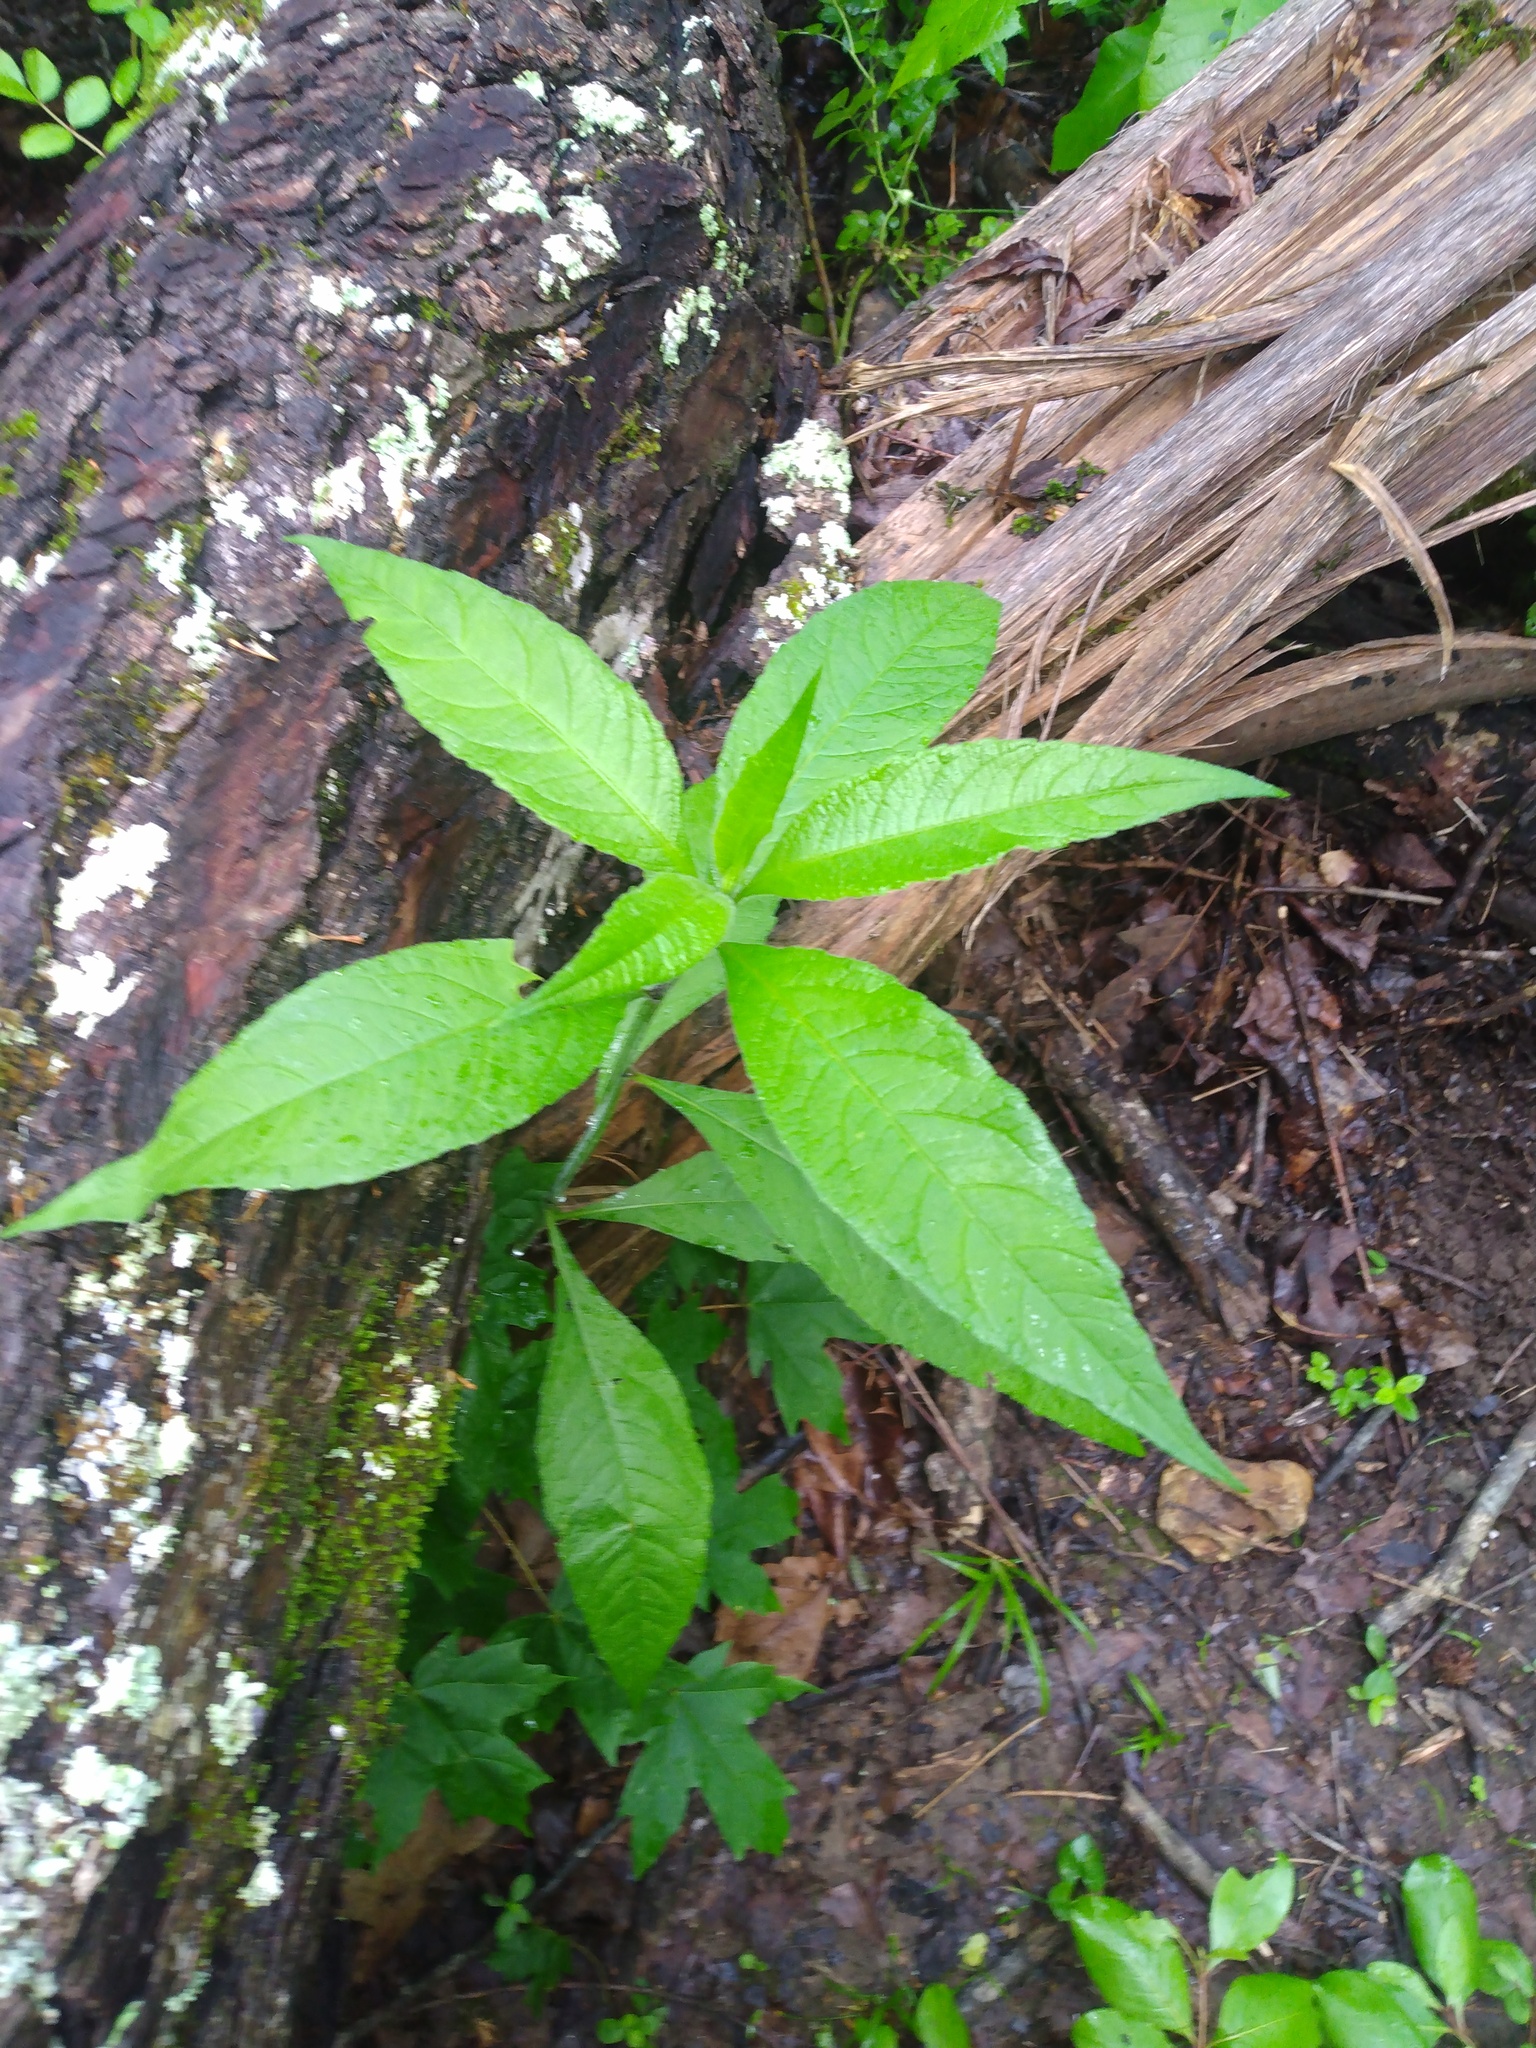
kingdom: Plantae
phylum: Tracheophyta
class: Magnoliopsida
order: Asterales
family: Asteraceae
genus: Verbesina
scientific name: Verbesina alternifolia
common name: Wingstem
